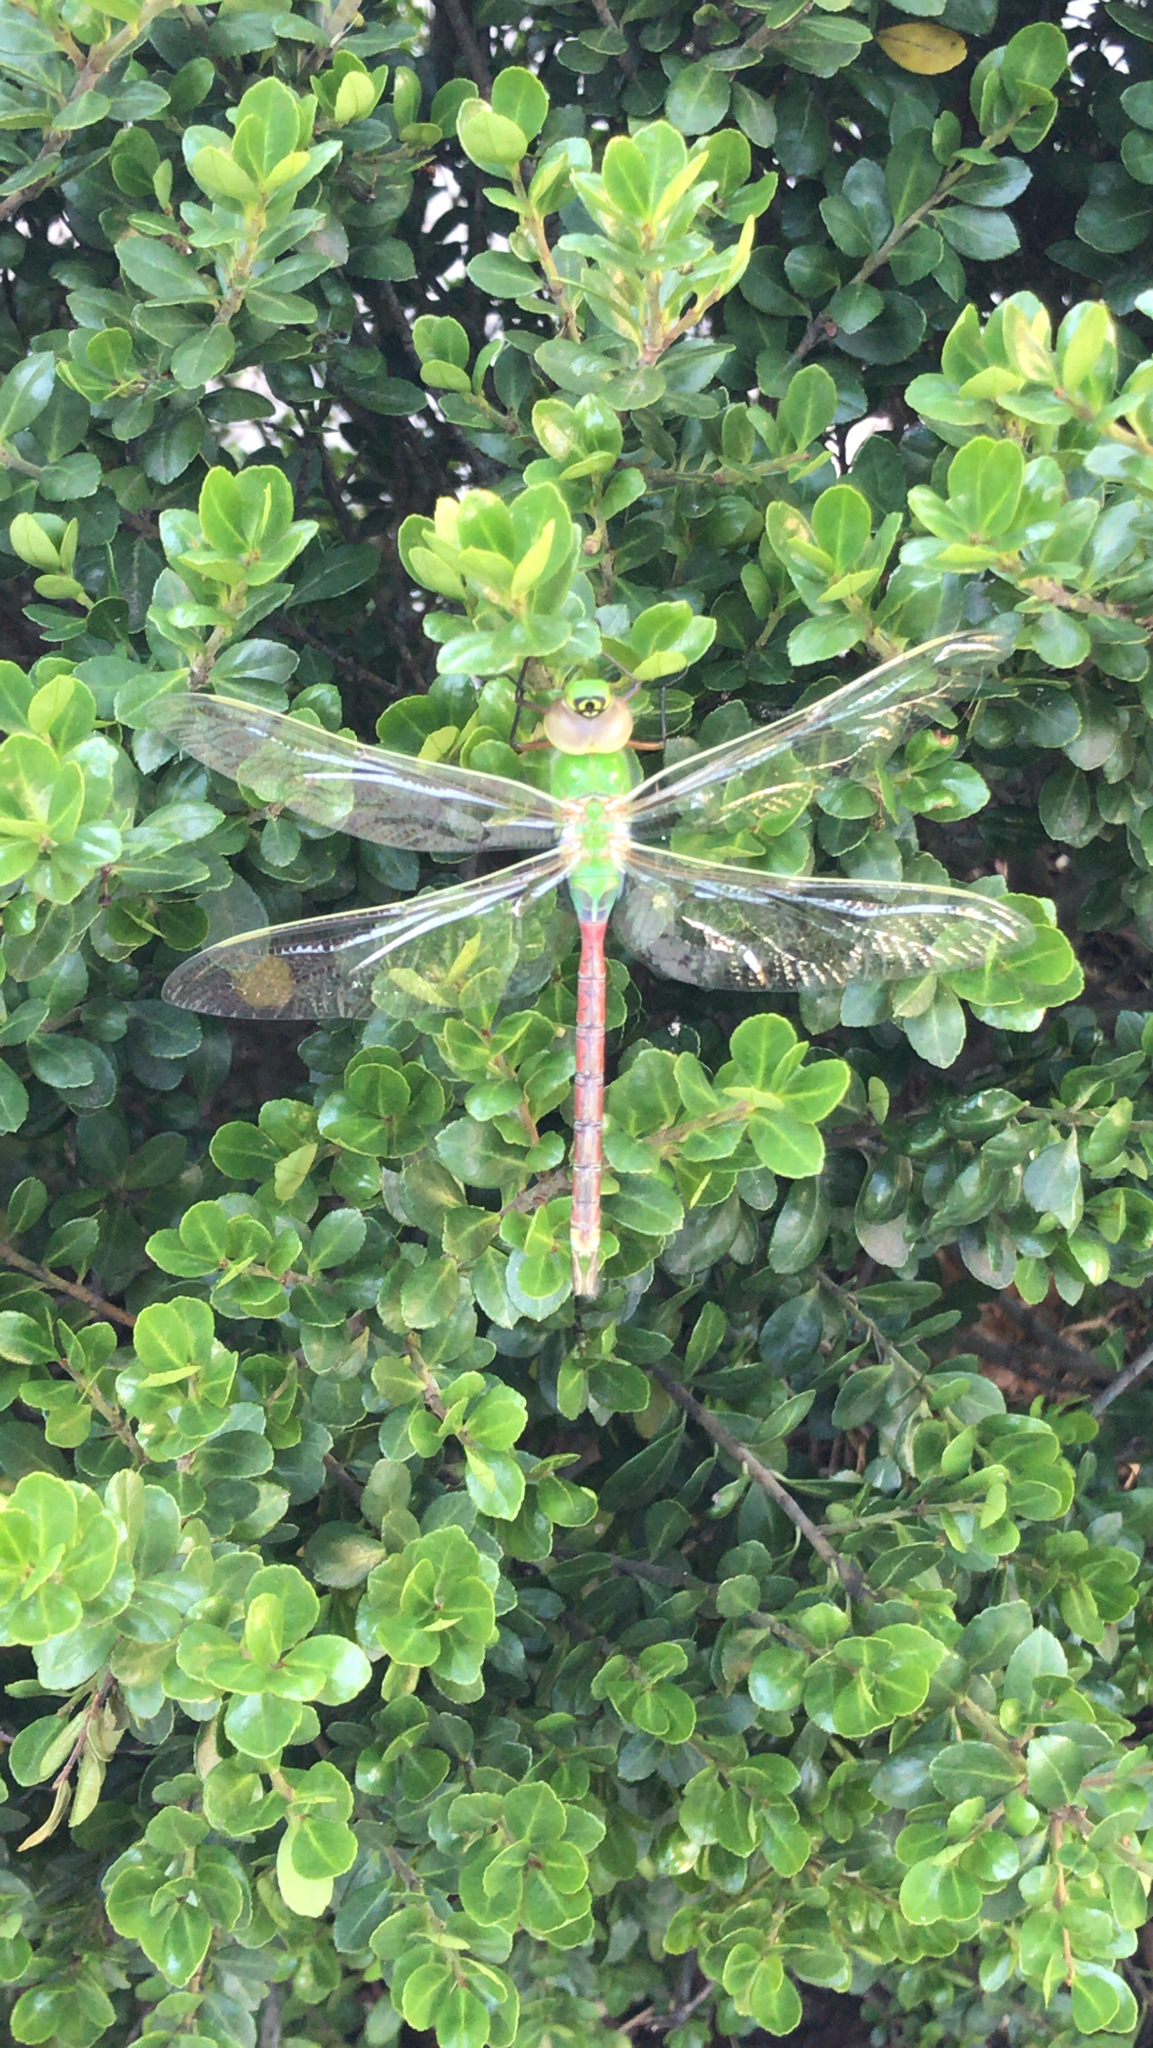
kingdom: Animalia
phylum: Arthropoda
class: Insecta
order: Odonata
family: Aeshnidae
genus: Anax
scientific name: Anax junius
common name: Common green darner
